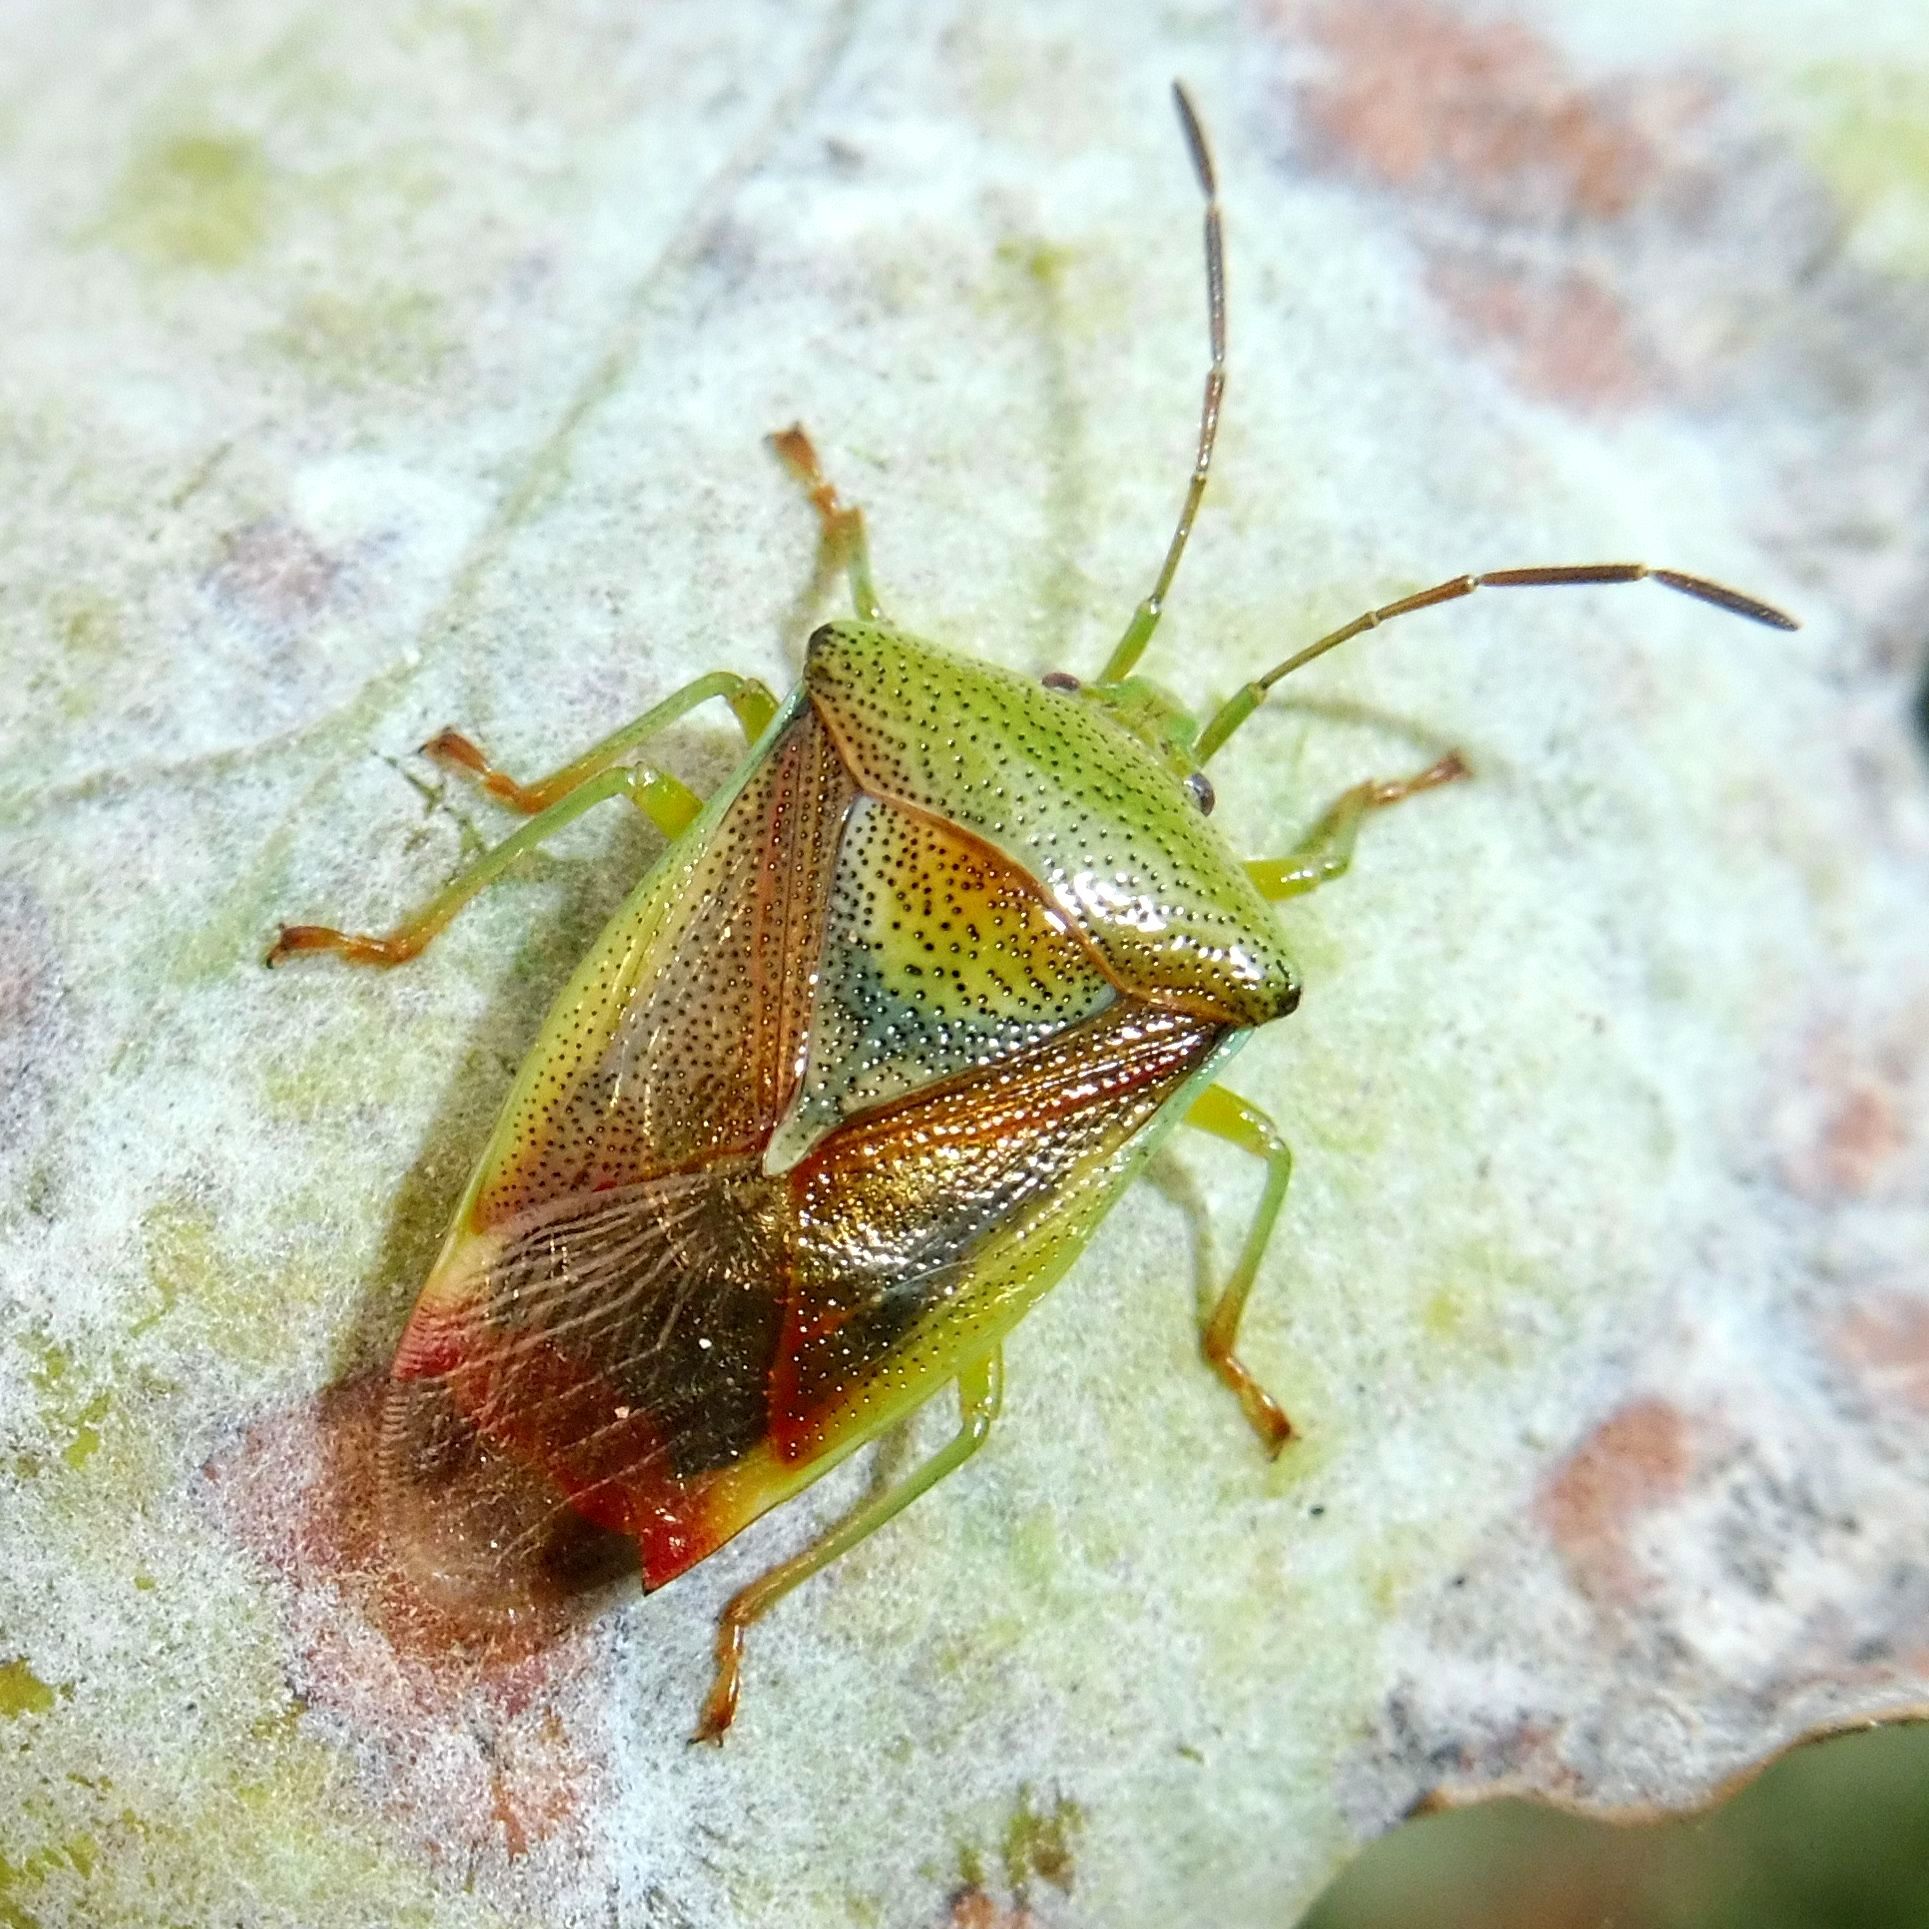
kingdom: Animalia
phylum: Arthropoda
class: Insecta
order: Hemiptera
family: Acanthosomatidae
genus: Elasmostethus
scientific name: Elasmostethus interstinctus
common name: Birch shieldbug
